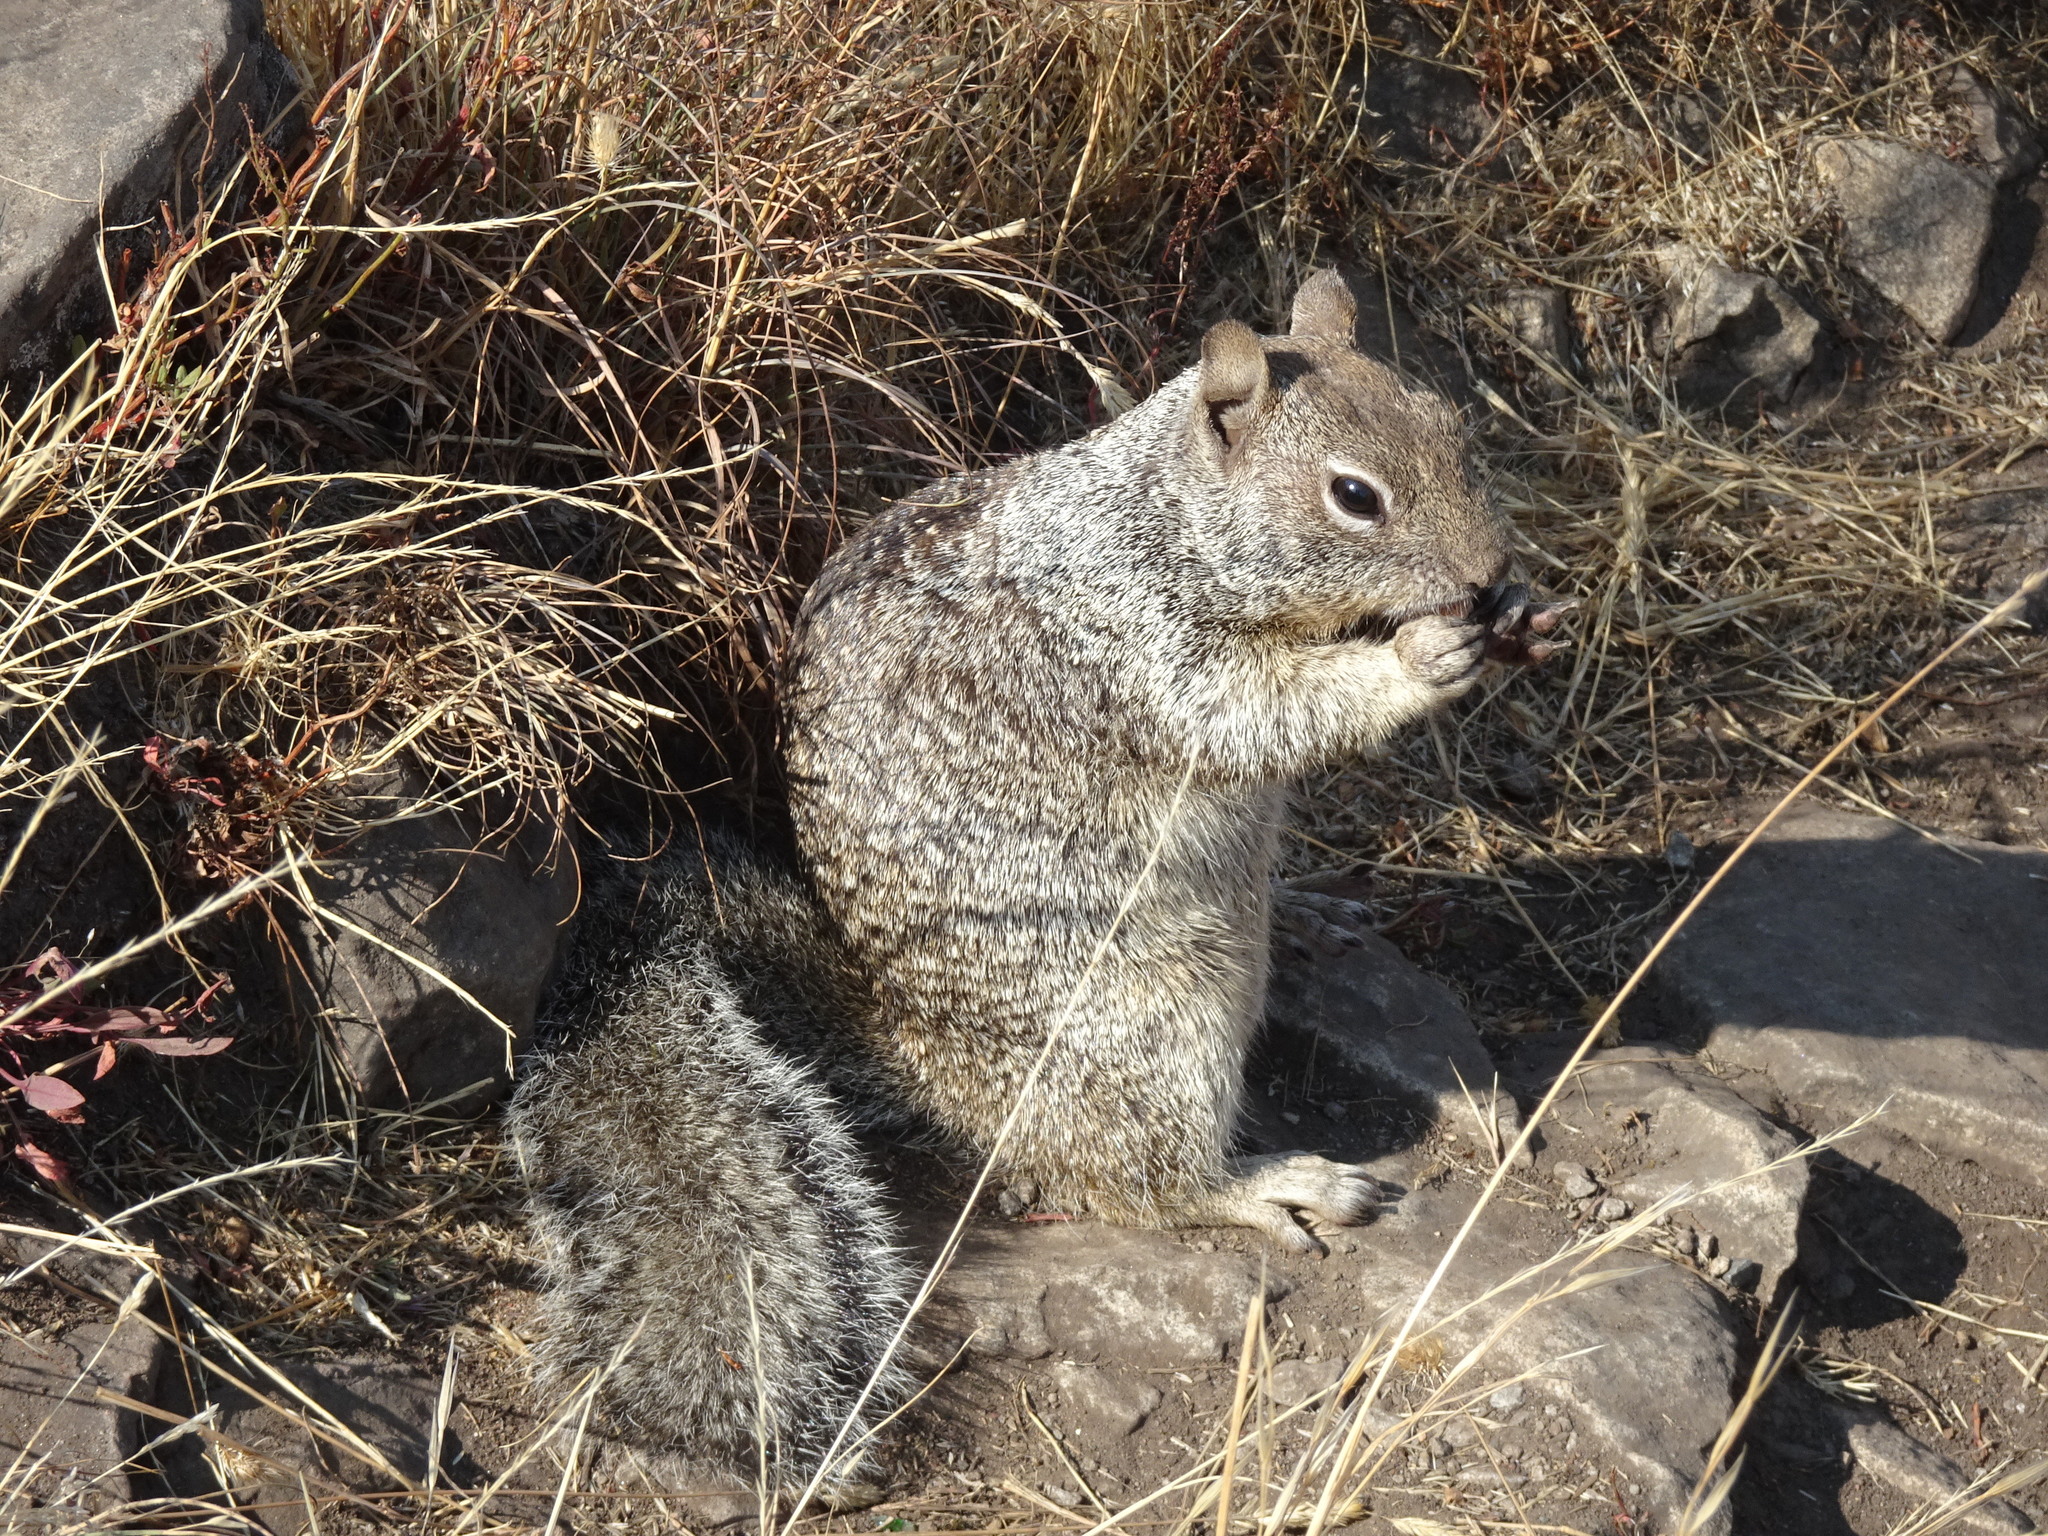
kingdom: Animalia
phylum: Chordata
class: Mammalia
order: Rodentia
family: Sciuridae
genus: Otospermophilus
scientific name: Otospermophilus beecheyi
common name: California ground squirrel
